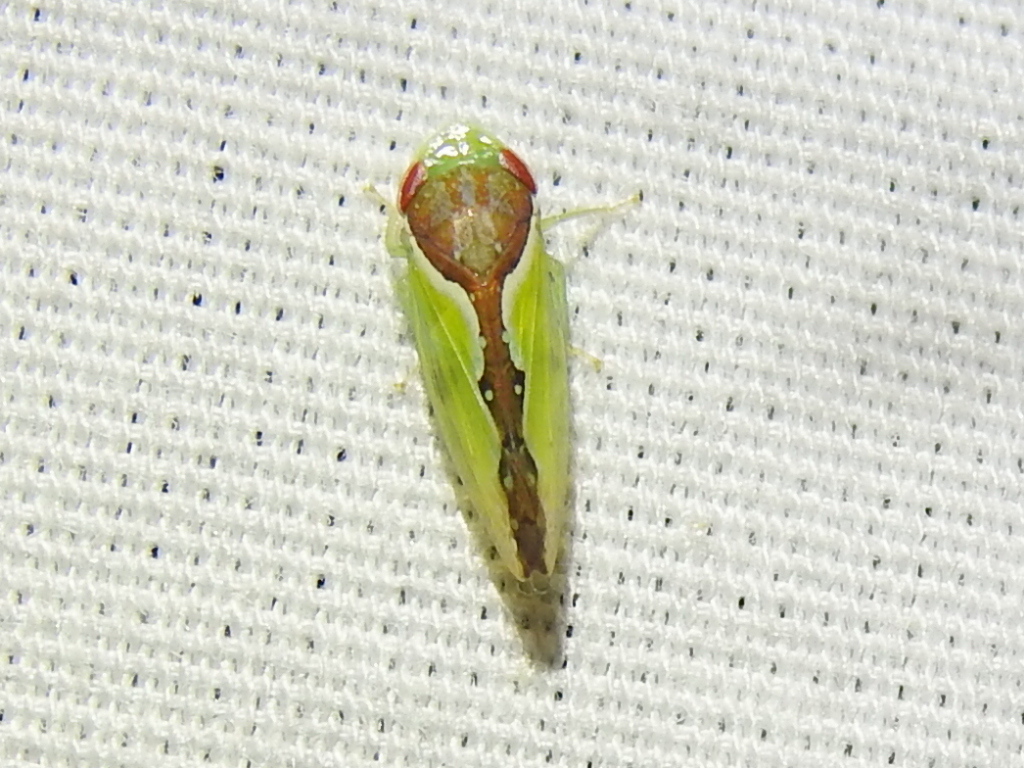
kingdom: Animalia
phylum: Arthropoda
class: Insecta
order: Hemiptera
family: Cicadellidae
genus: Omansobara ing
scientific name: Omansobara ing Omansobara palliolata
